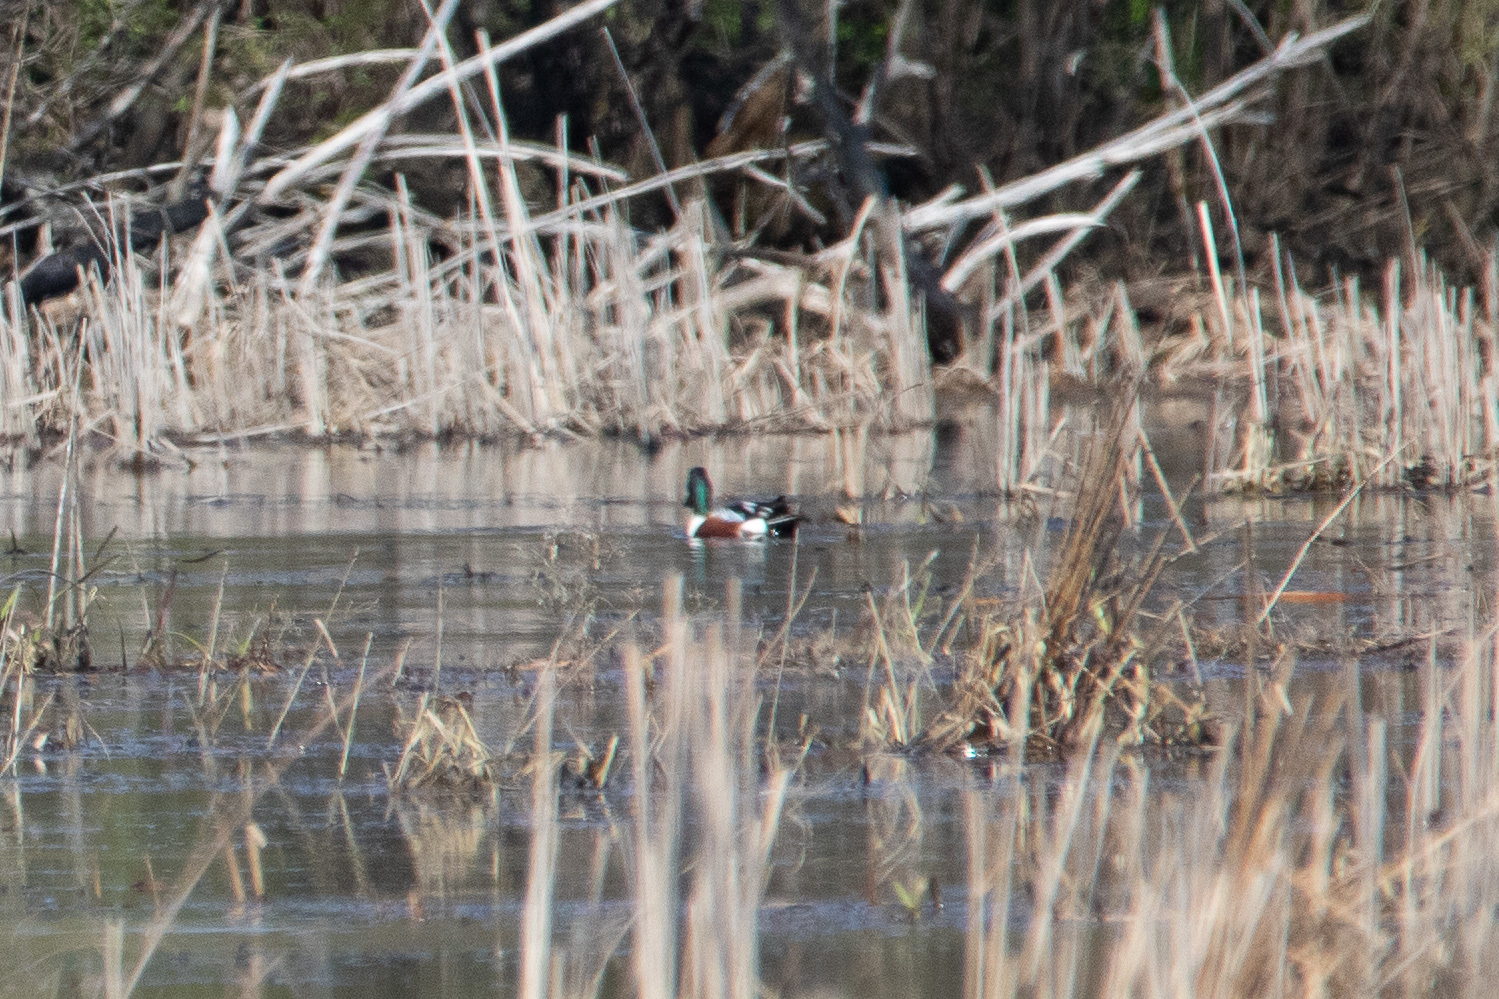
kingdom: Animalia
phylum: Chordata
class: Aves
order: Anseriformes
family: Anatidae
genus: Spatula
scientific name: Spatula clypeata
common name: Northern shoveler
